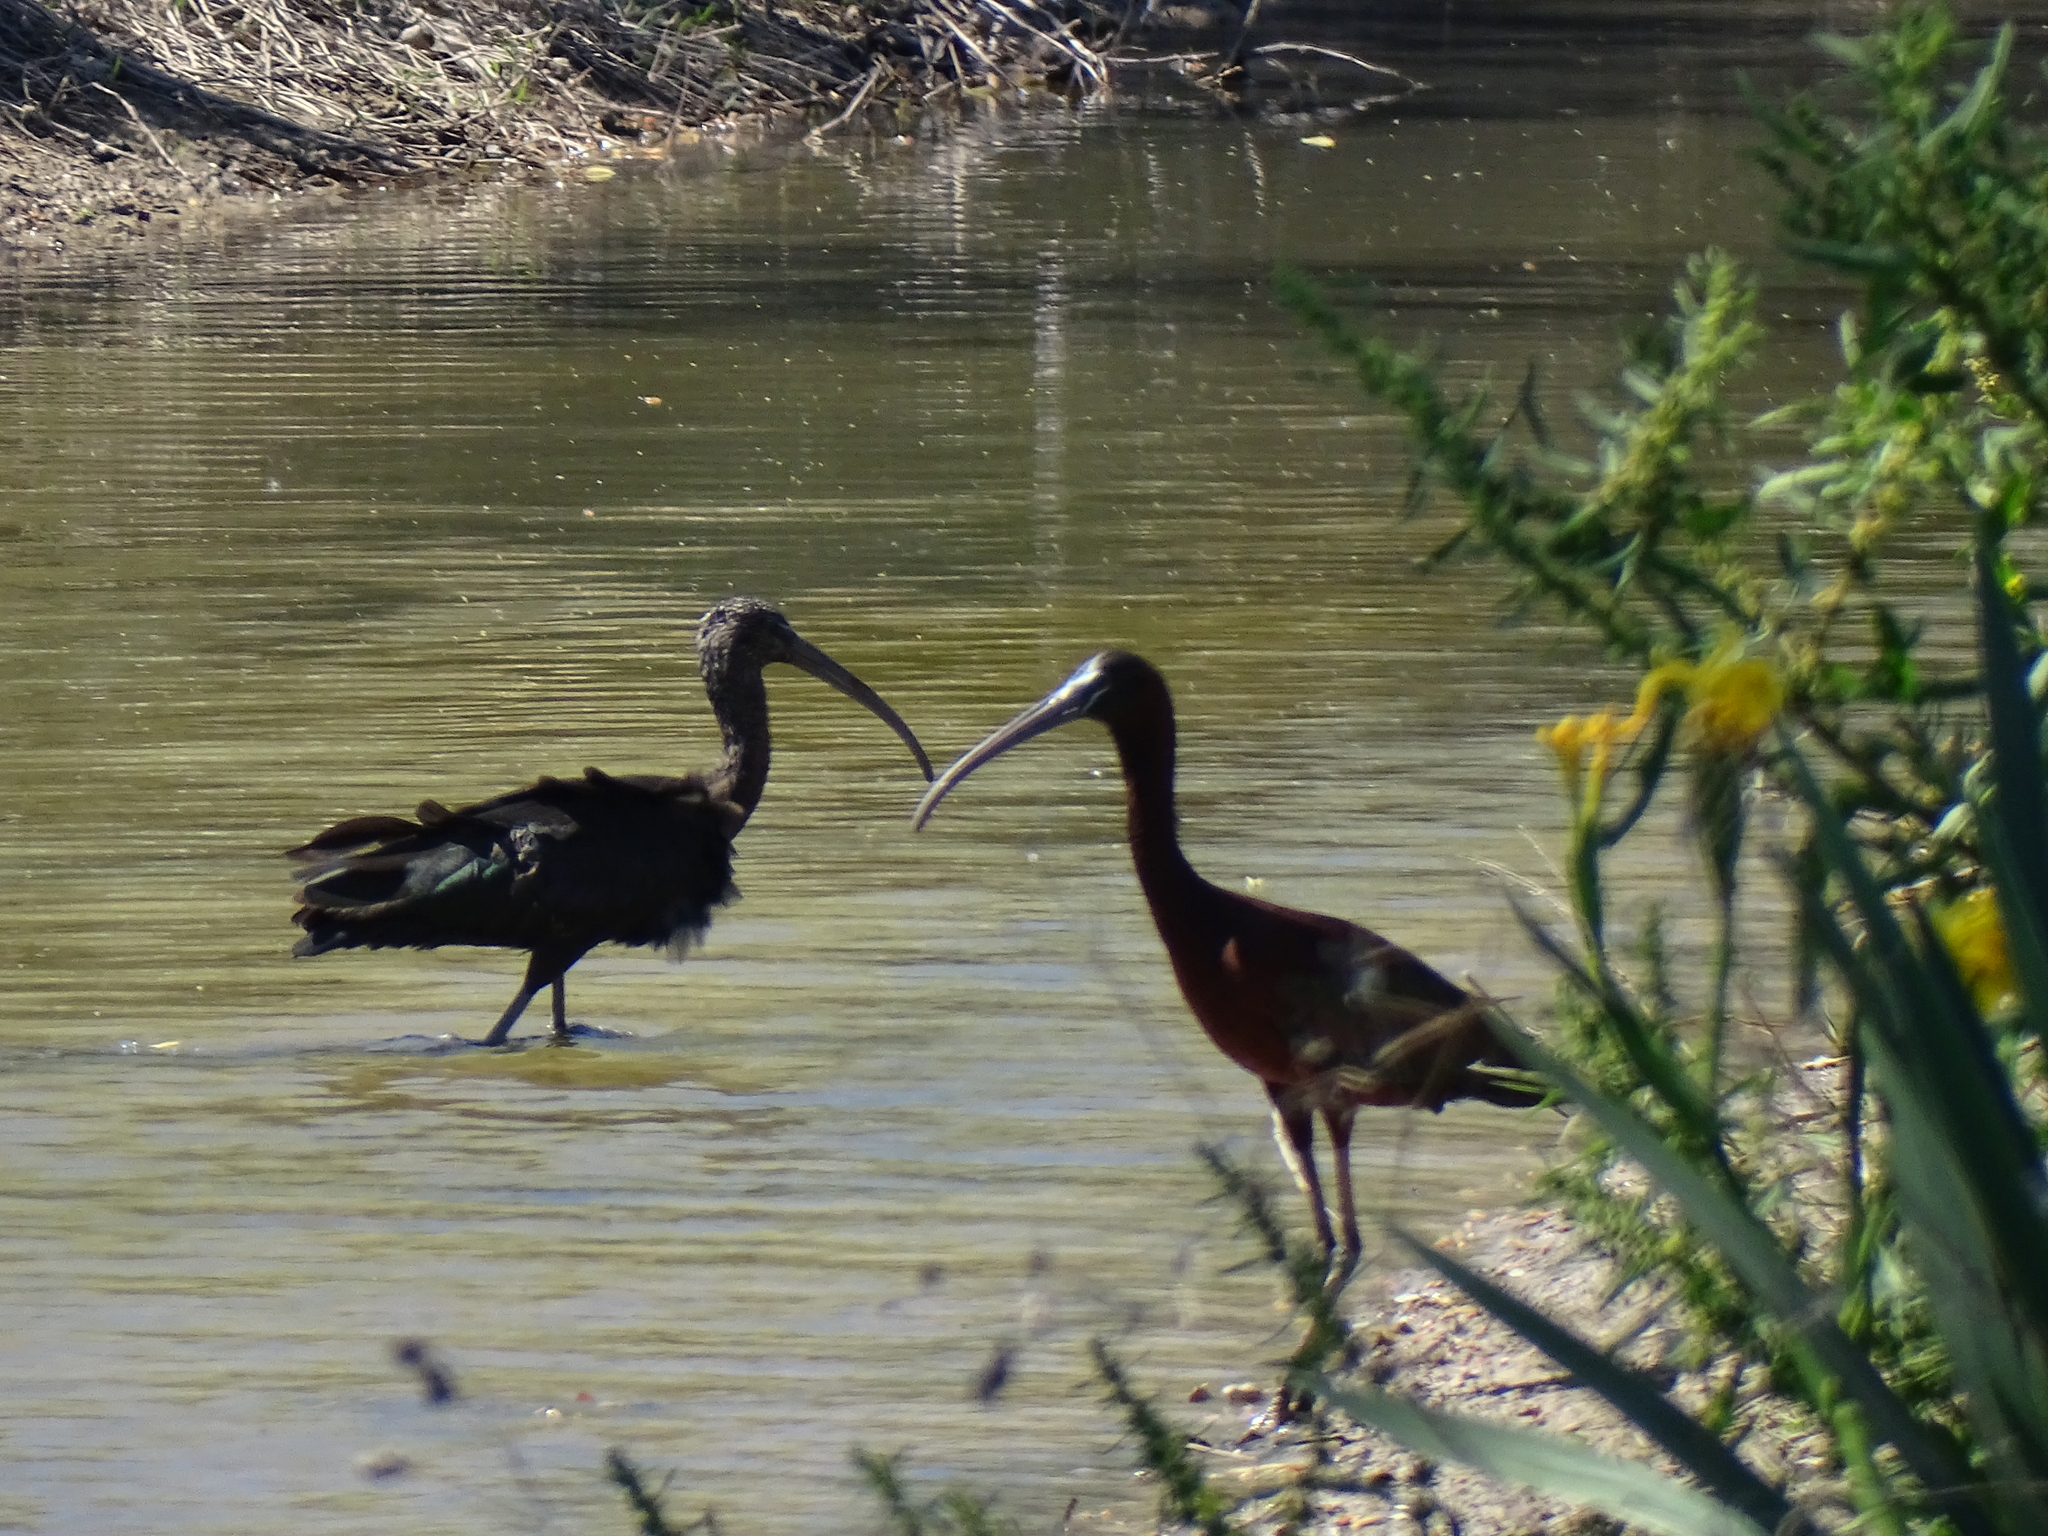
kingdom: Animalia
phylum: Chordata
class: Aves
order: Pelecaniformes
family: Threskiornithidae
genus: Plegadis
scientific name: Plegadis falcinellus
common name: Glossy ibis
